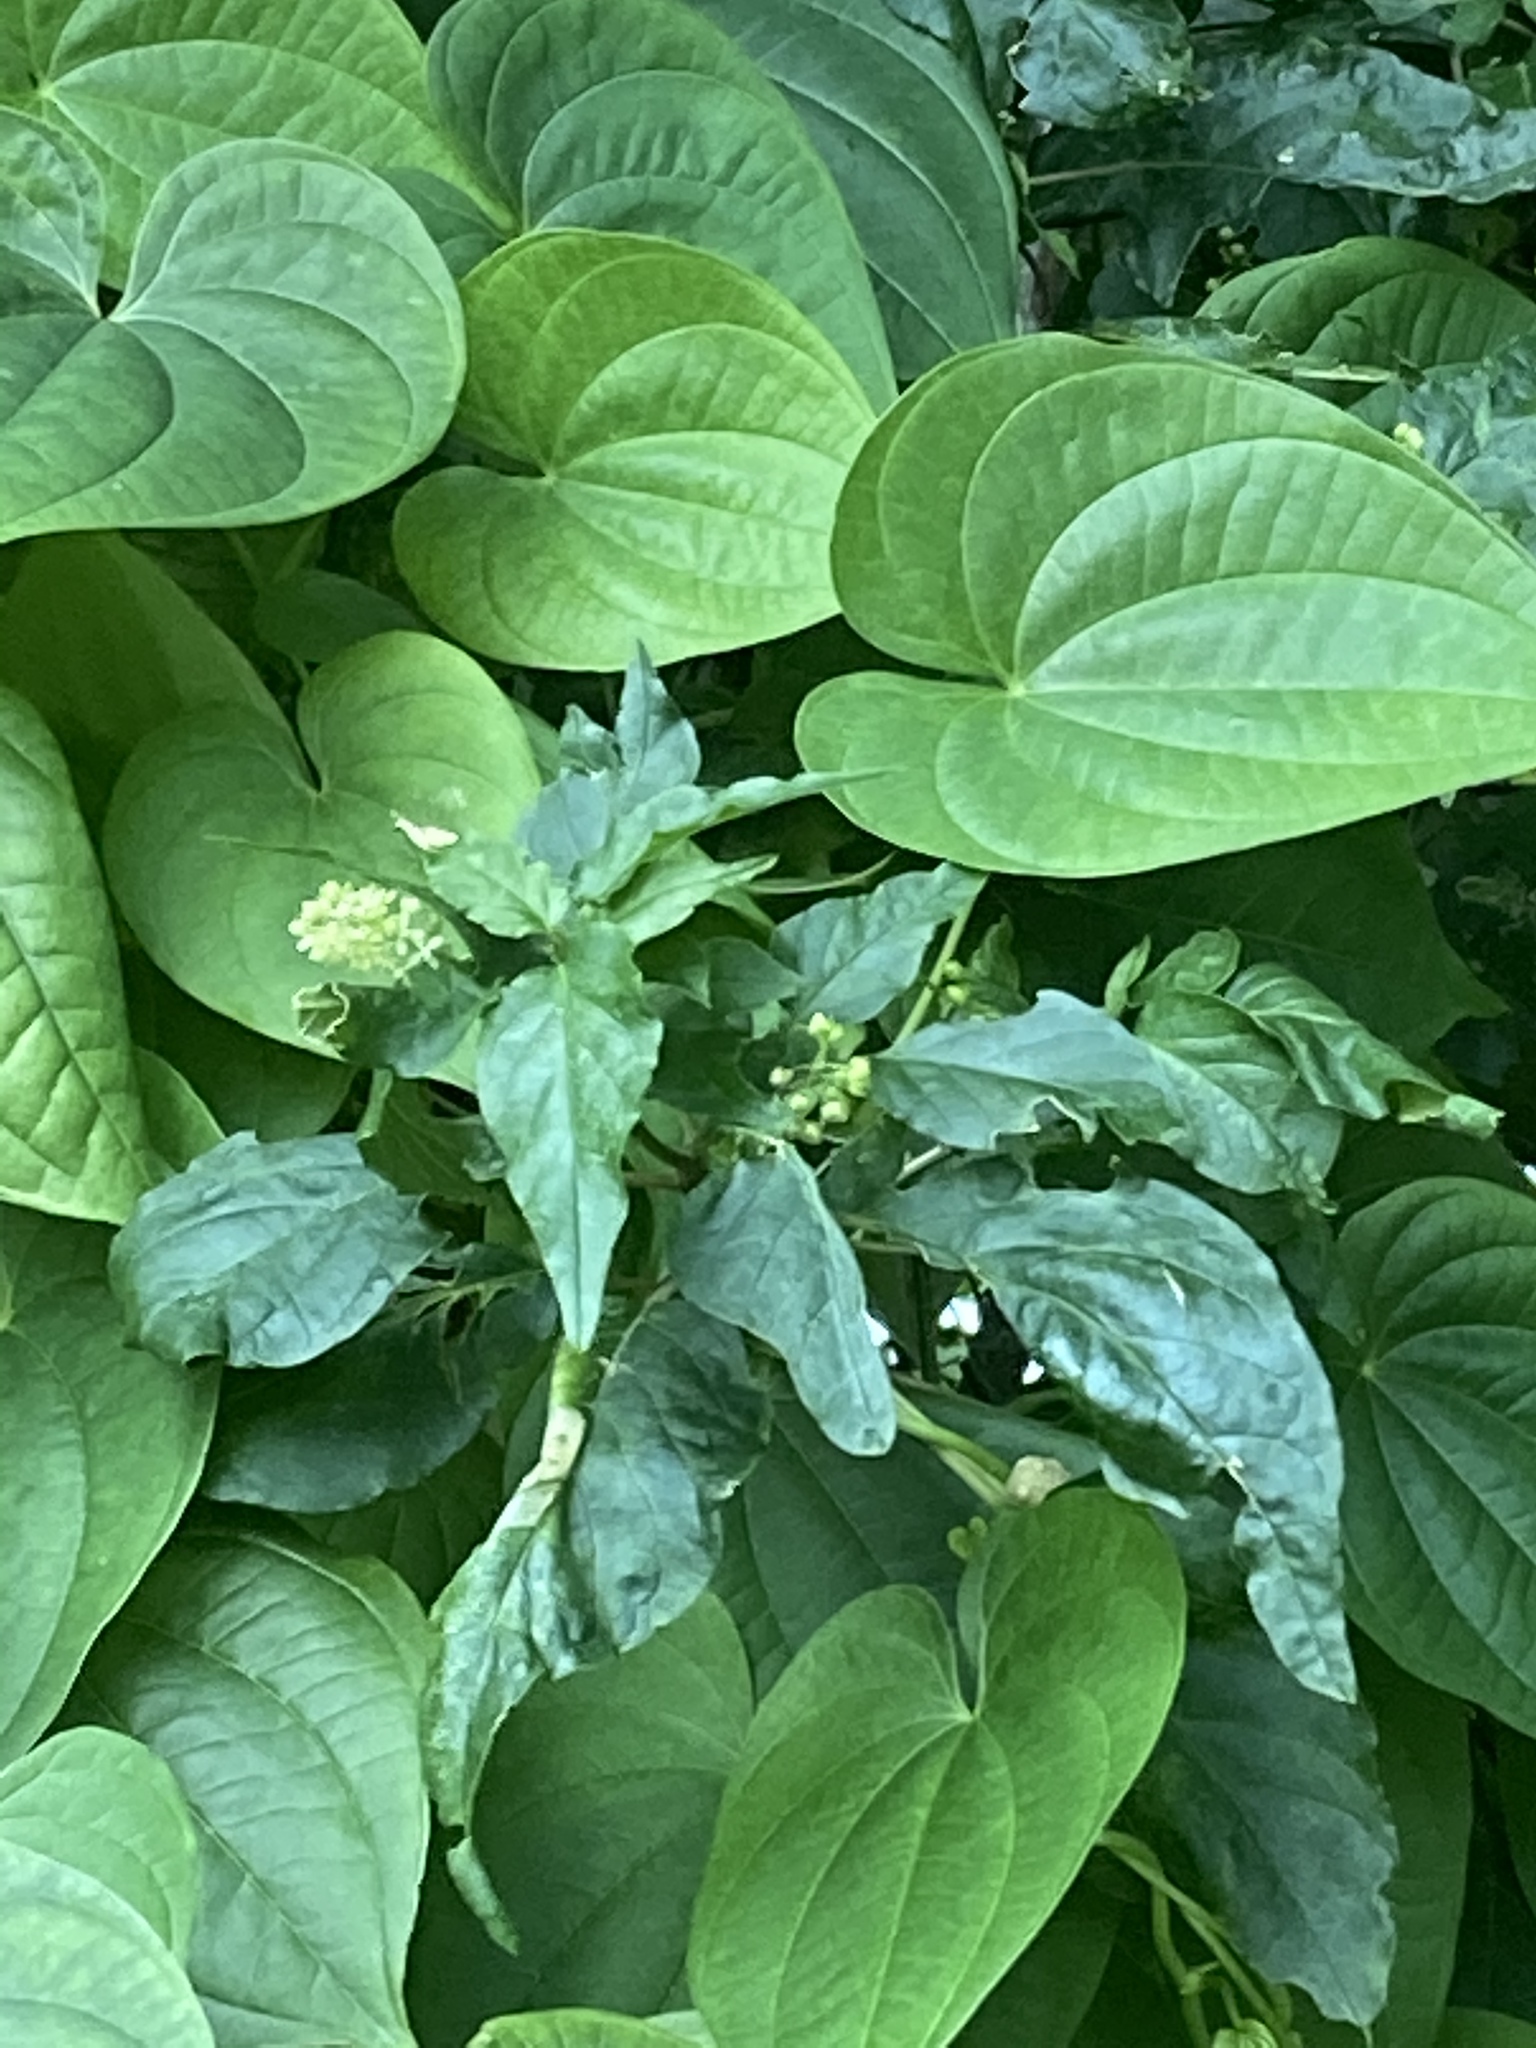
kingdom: Plantae
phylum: Tracheophyta
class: Magnoliopsida
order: Caryophyllales
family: Phytolaccaceae
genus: Rivina
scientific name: Rivina humilis
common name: Rougeplant
